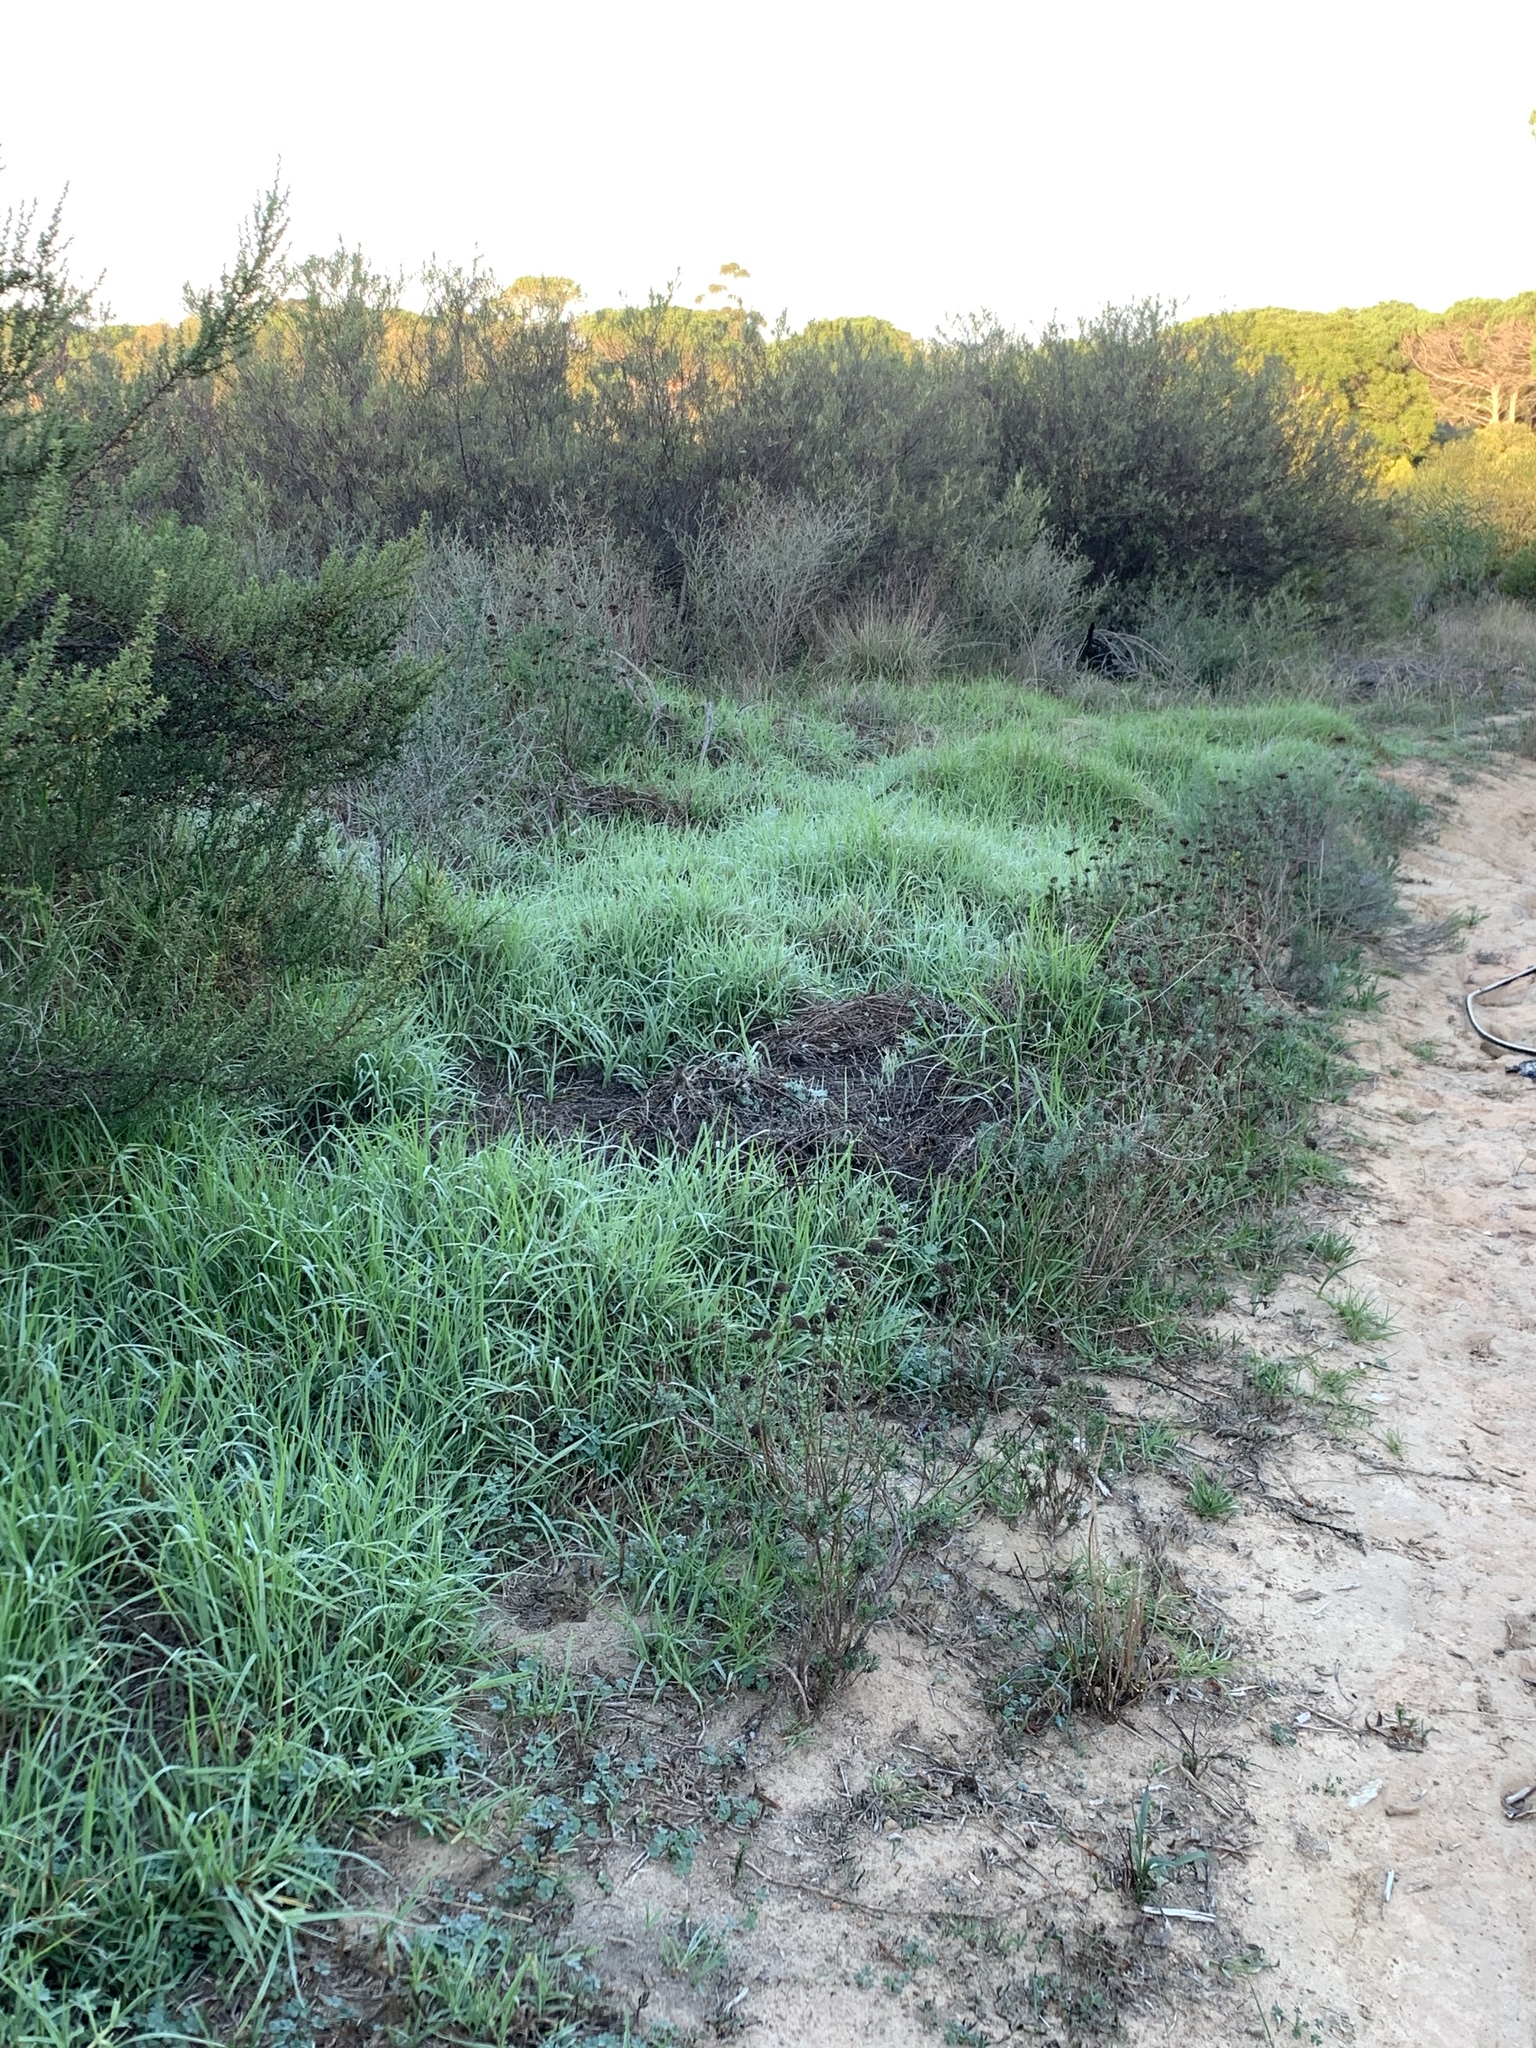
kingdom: Plantae
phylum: Tracheophyta
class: Liliopsida
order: Poales
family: Poaceae
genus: Cenchrus
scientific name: Cenchrus clandestinus
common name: Kikuyugrass
